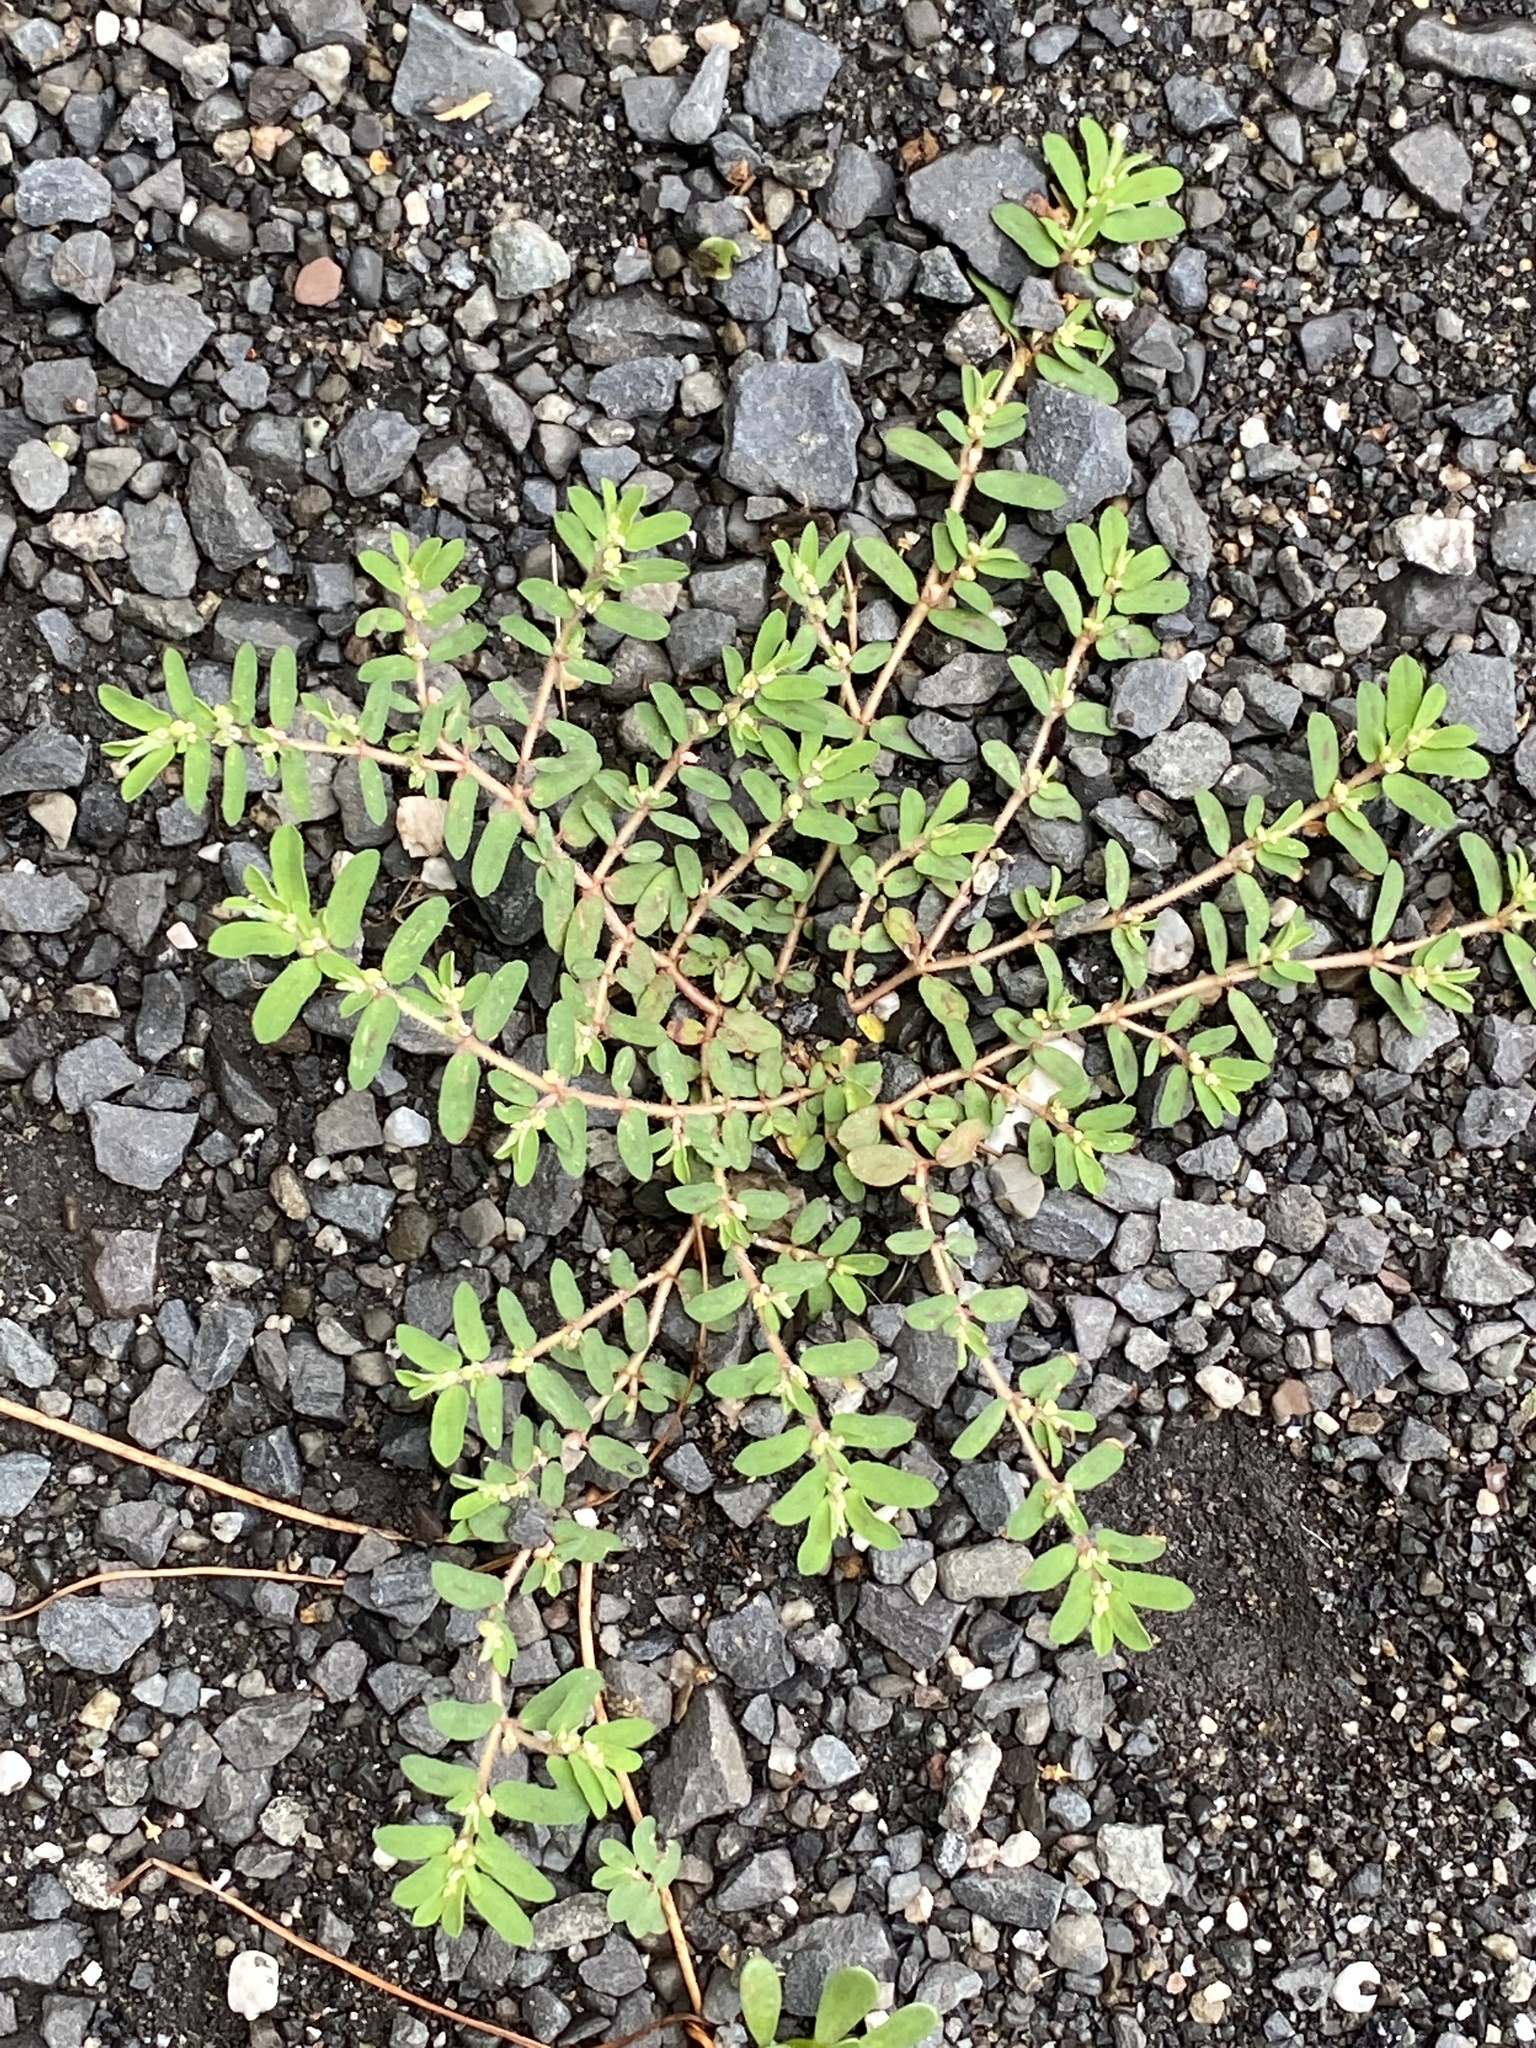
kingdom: Plantae
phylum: Tracheophyta
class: Magnoliopsida
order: Malpighiales
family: Euphorbiaceae
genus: Euphorbia
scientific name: Euphorbia maculata
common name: Spotted spurge
